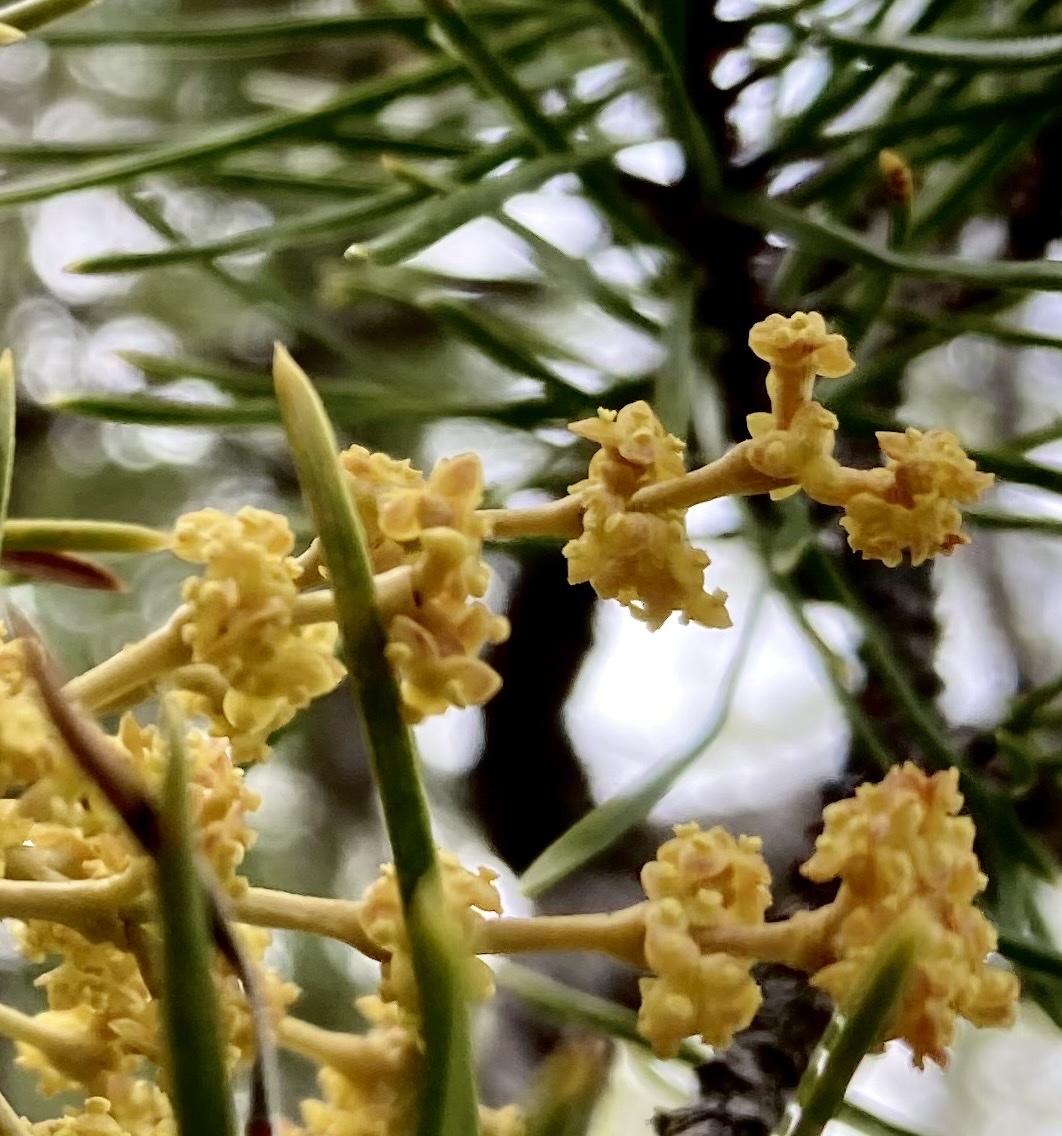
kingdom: Plantae
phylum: Tracheophyta
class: Magnoliopsida
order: Santalales
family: Viscaceae
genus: Arceuthobium
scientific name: Arceuthobium americanum
